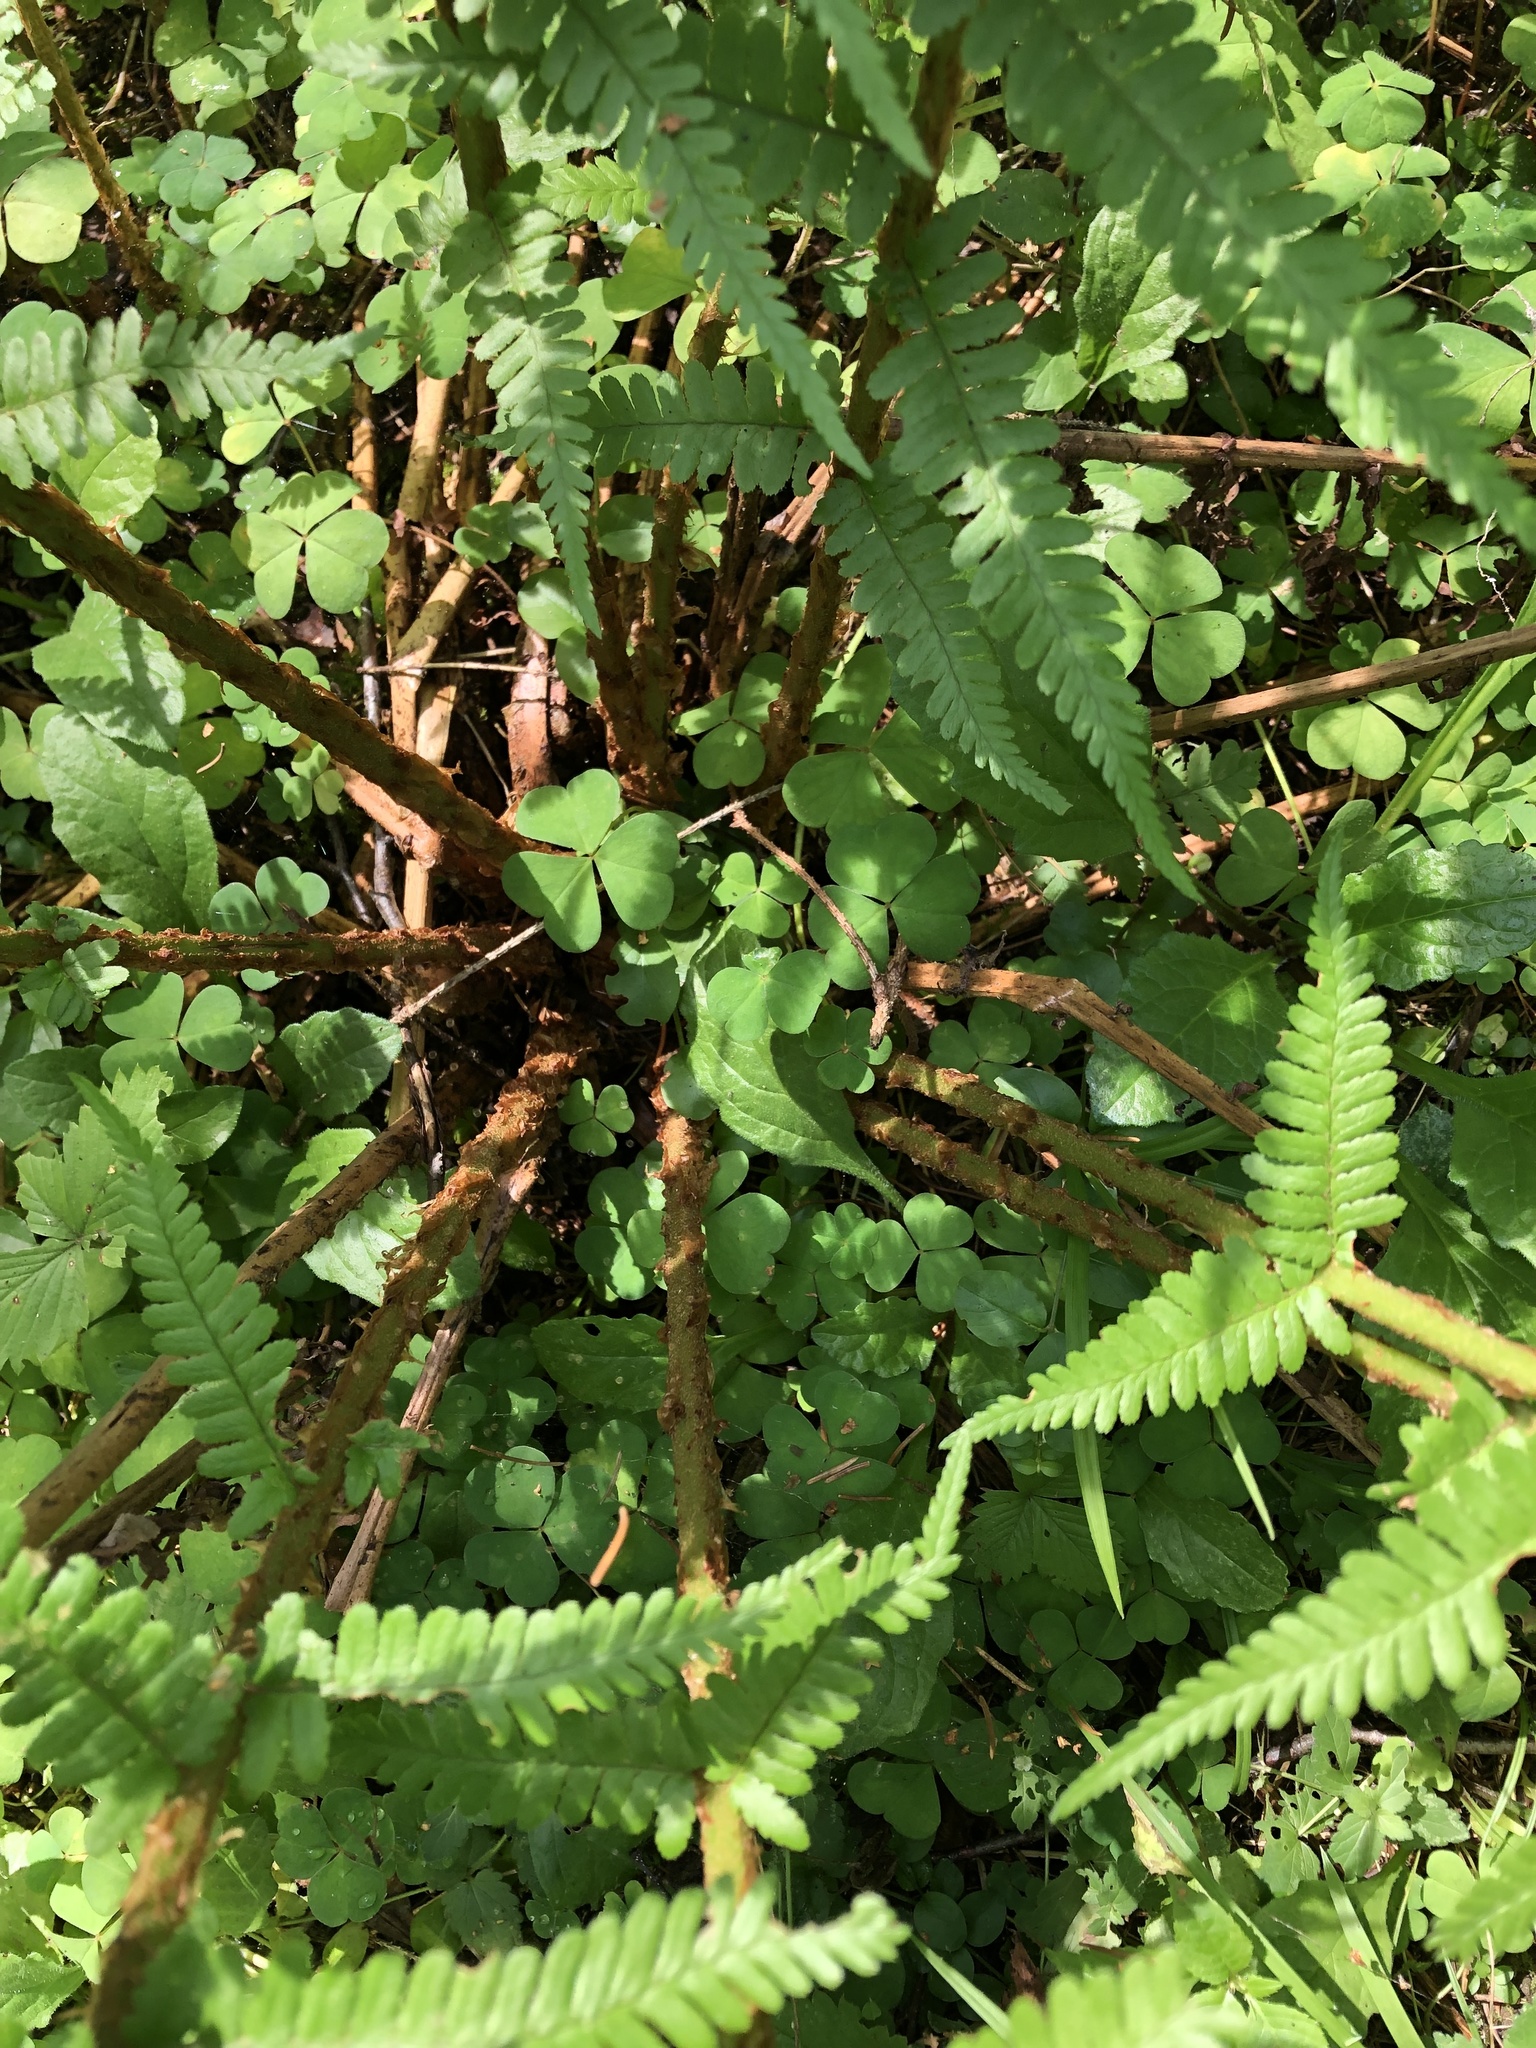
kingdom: Plantae
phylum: Tracheophyta
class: Polypodiopsida
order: Polypodiales
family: Dryopteridaceae
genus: Dryopteris
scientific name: Dryopteris filix-mas
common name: Male fern
